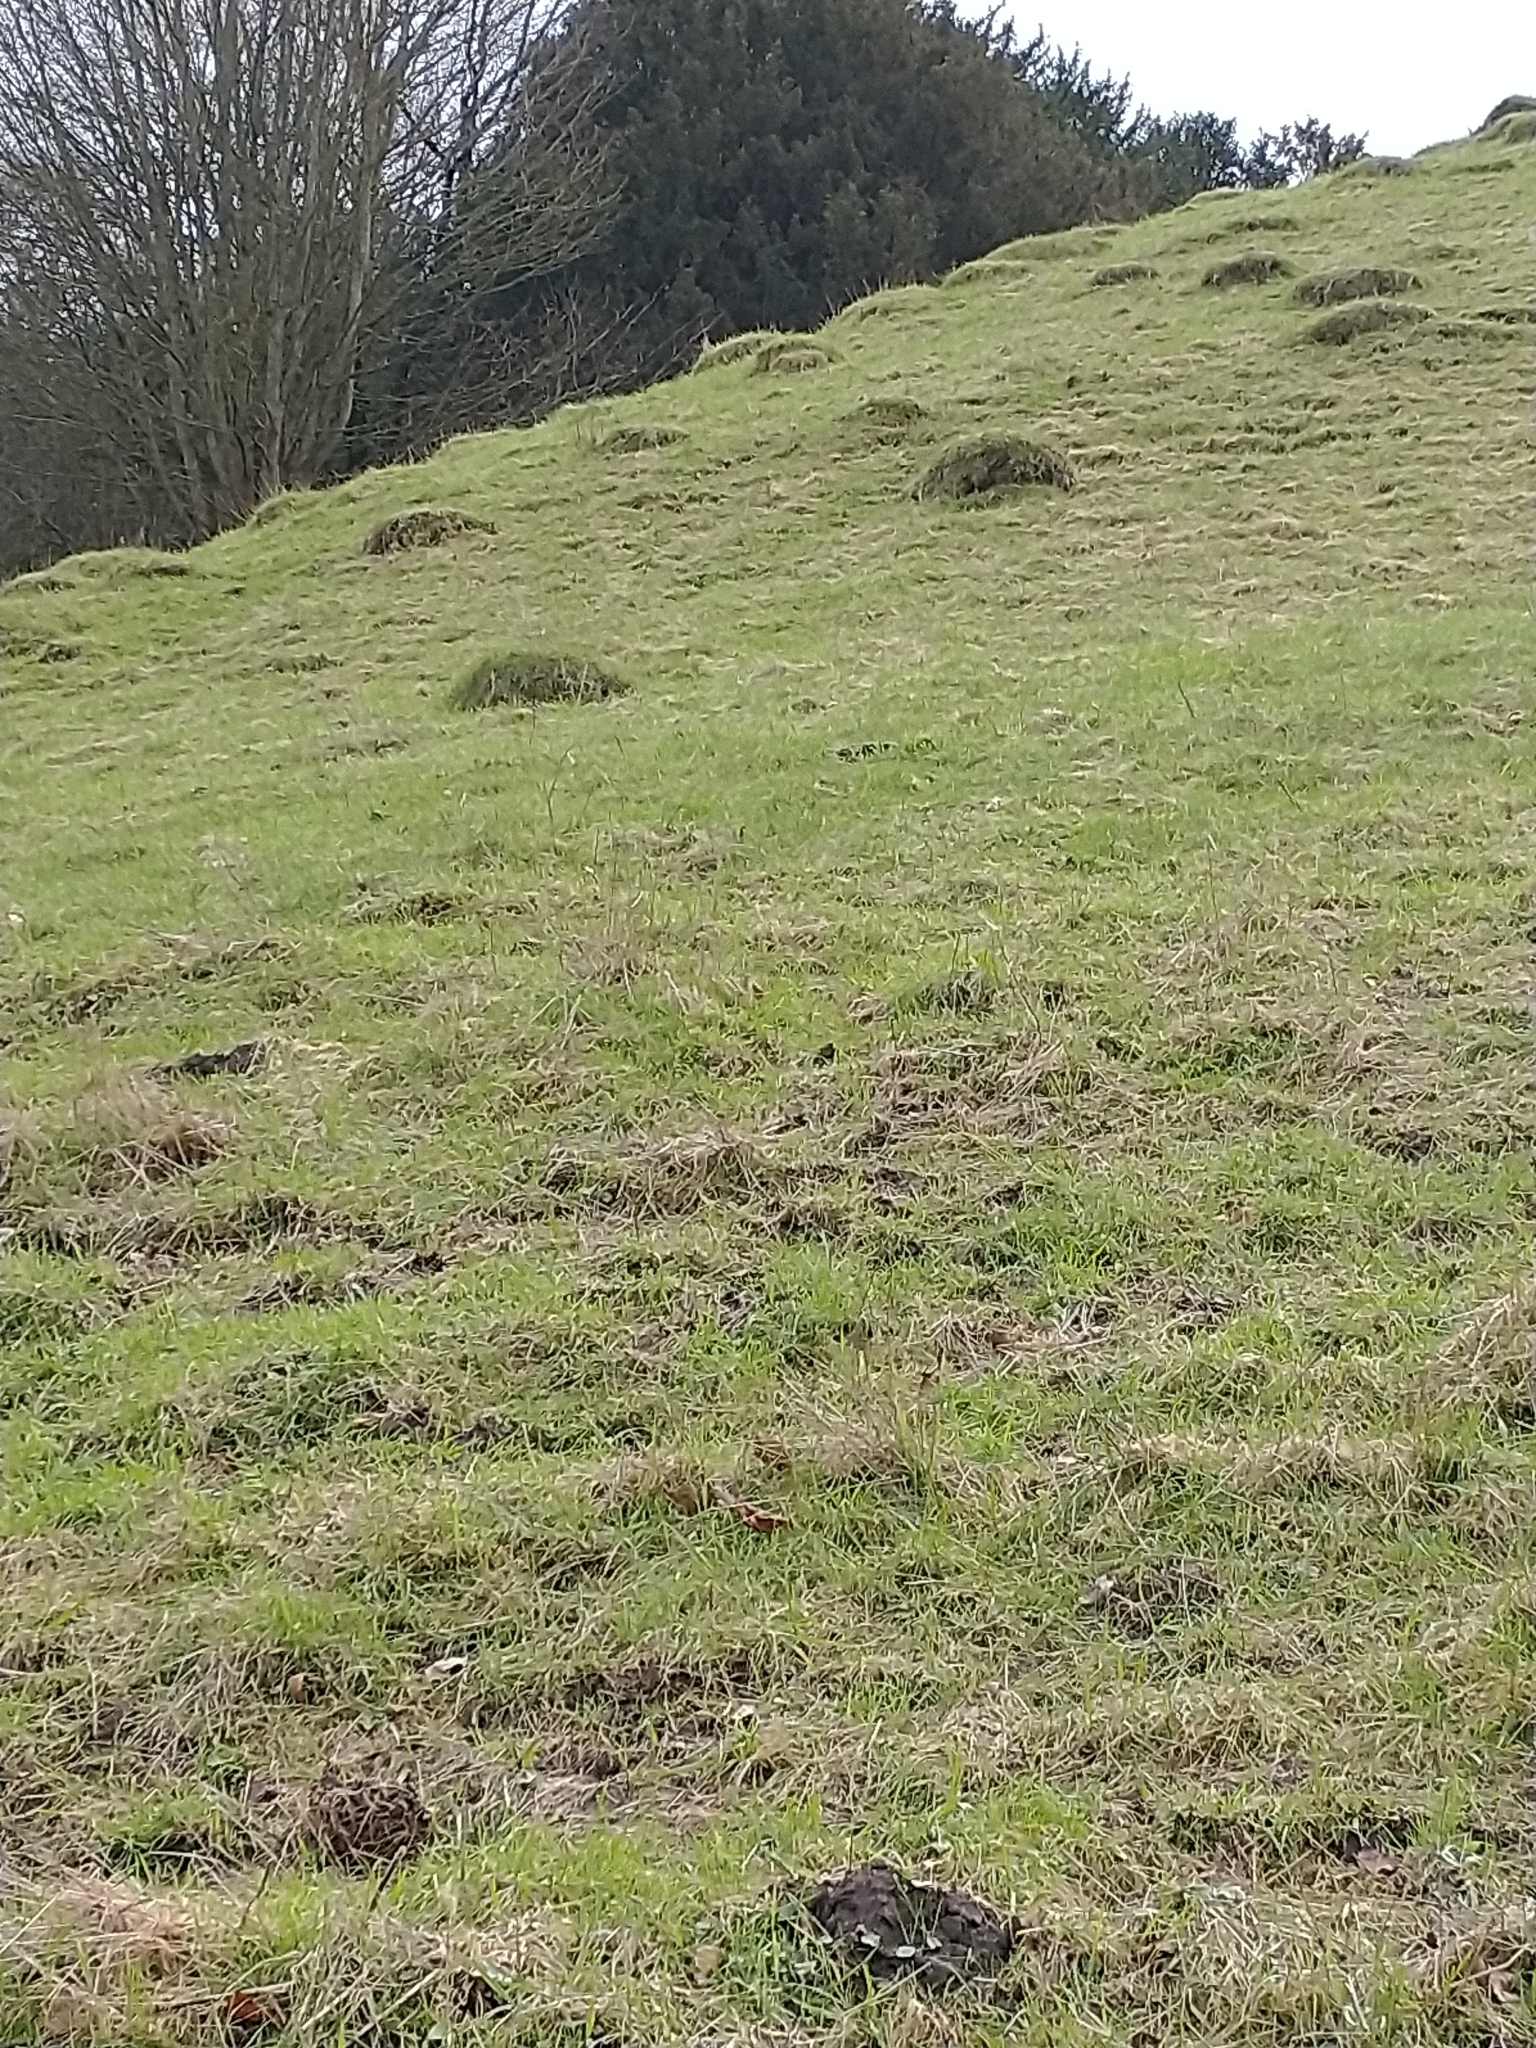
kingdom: Animalia
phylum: Arthropoda
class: Insecta
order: Hymenoptera
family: Formicidae
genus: Lasius
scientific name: Lasius flavus
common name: Blond field ant
